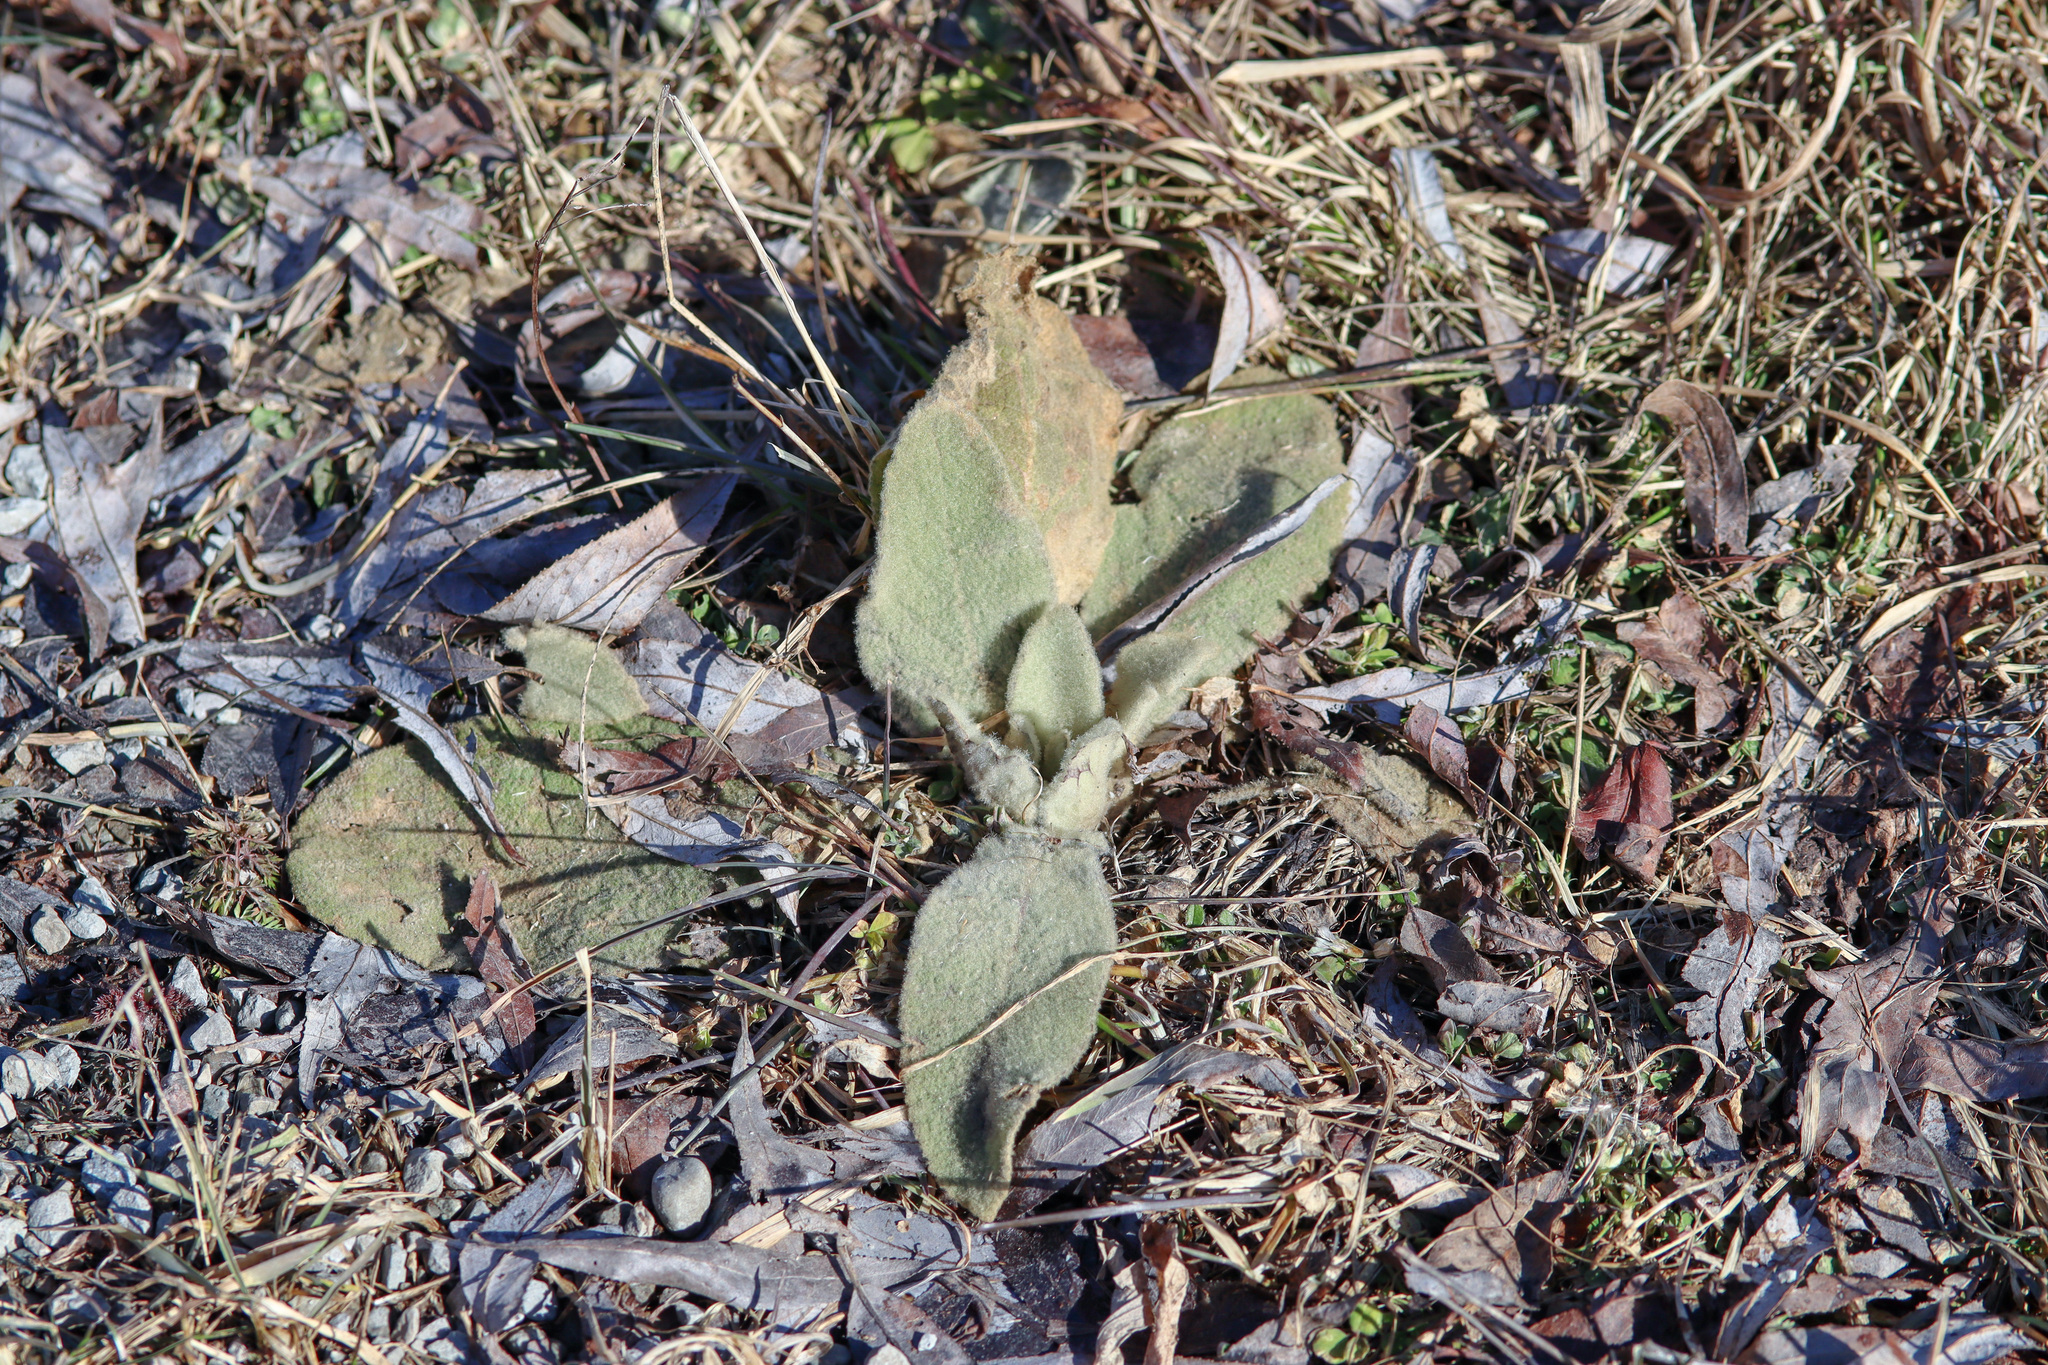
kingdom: Plantae
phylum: Tracheophyta
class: Magnoliopsida
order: Lamiales
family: Scrophulariaceae
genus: Verbascum
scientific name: Verbascum thapsus
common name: Common mullein
